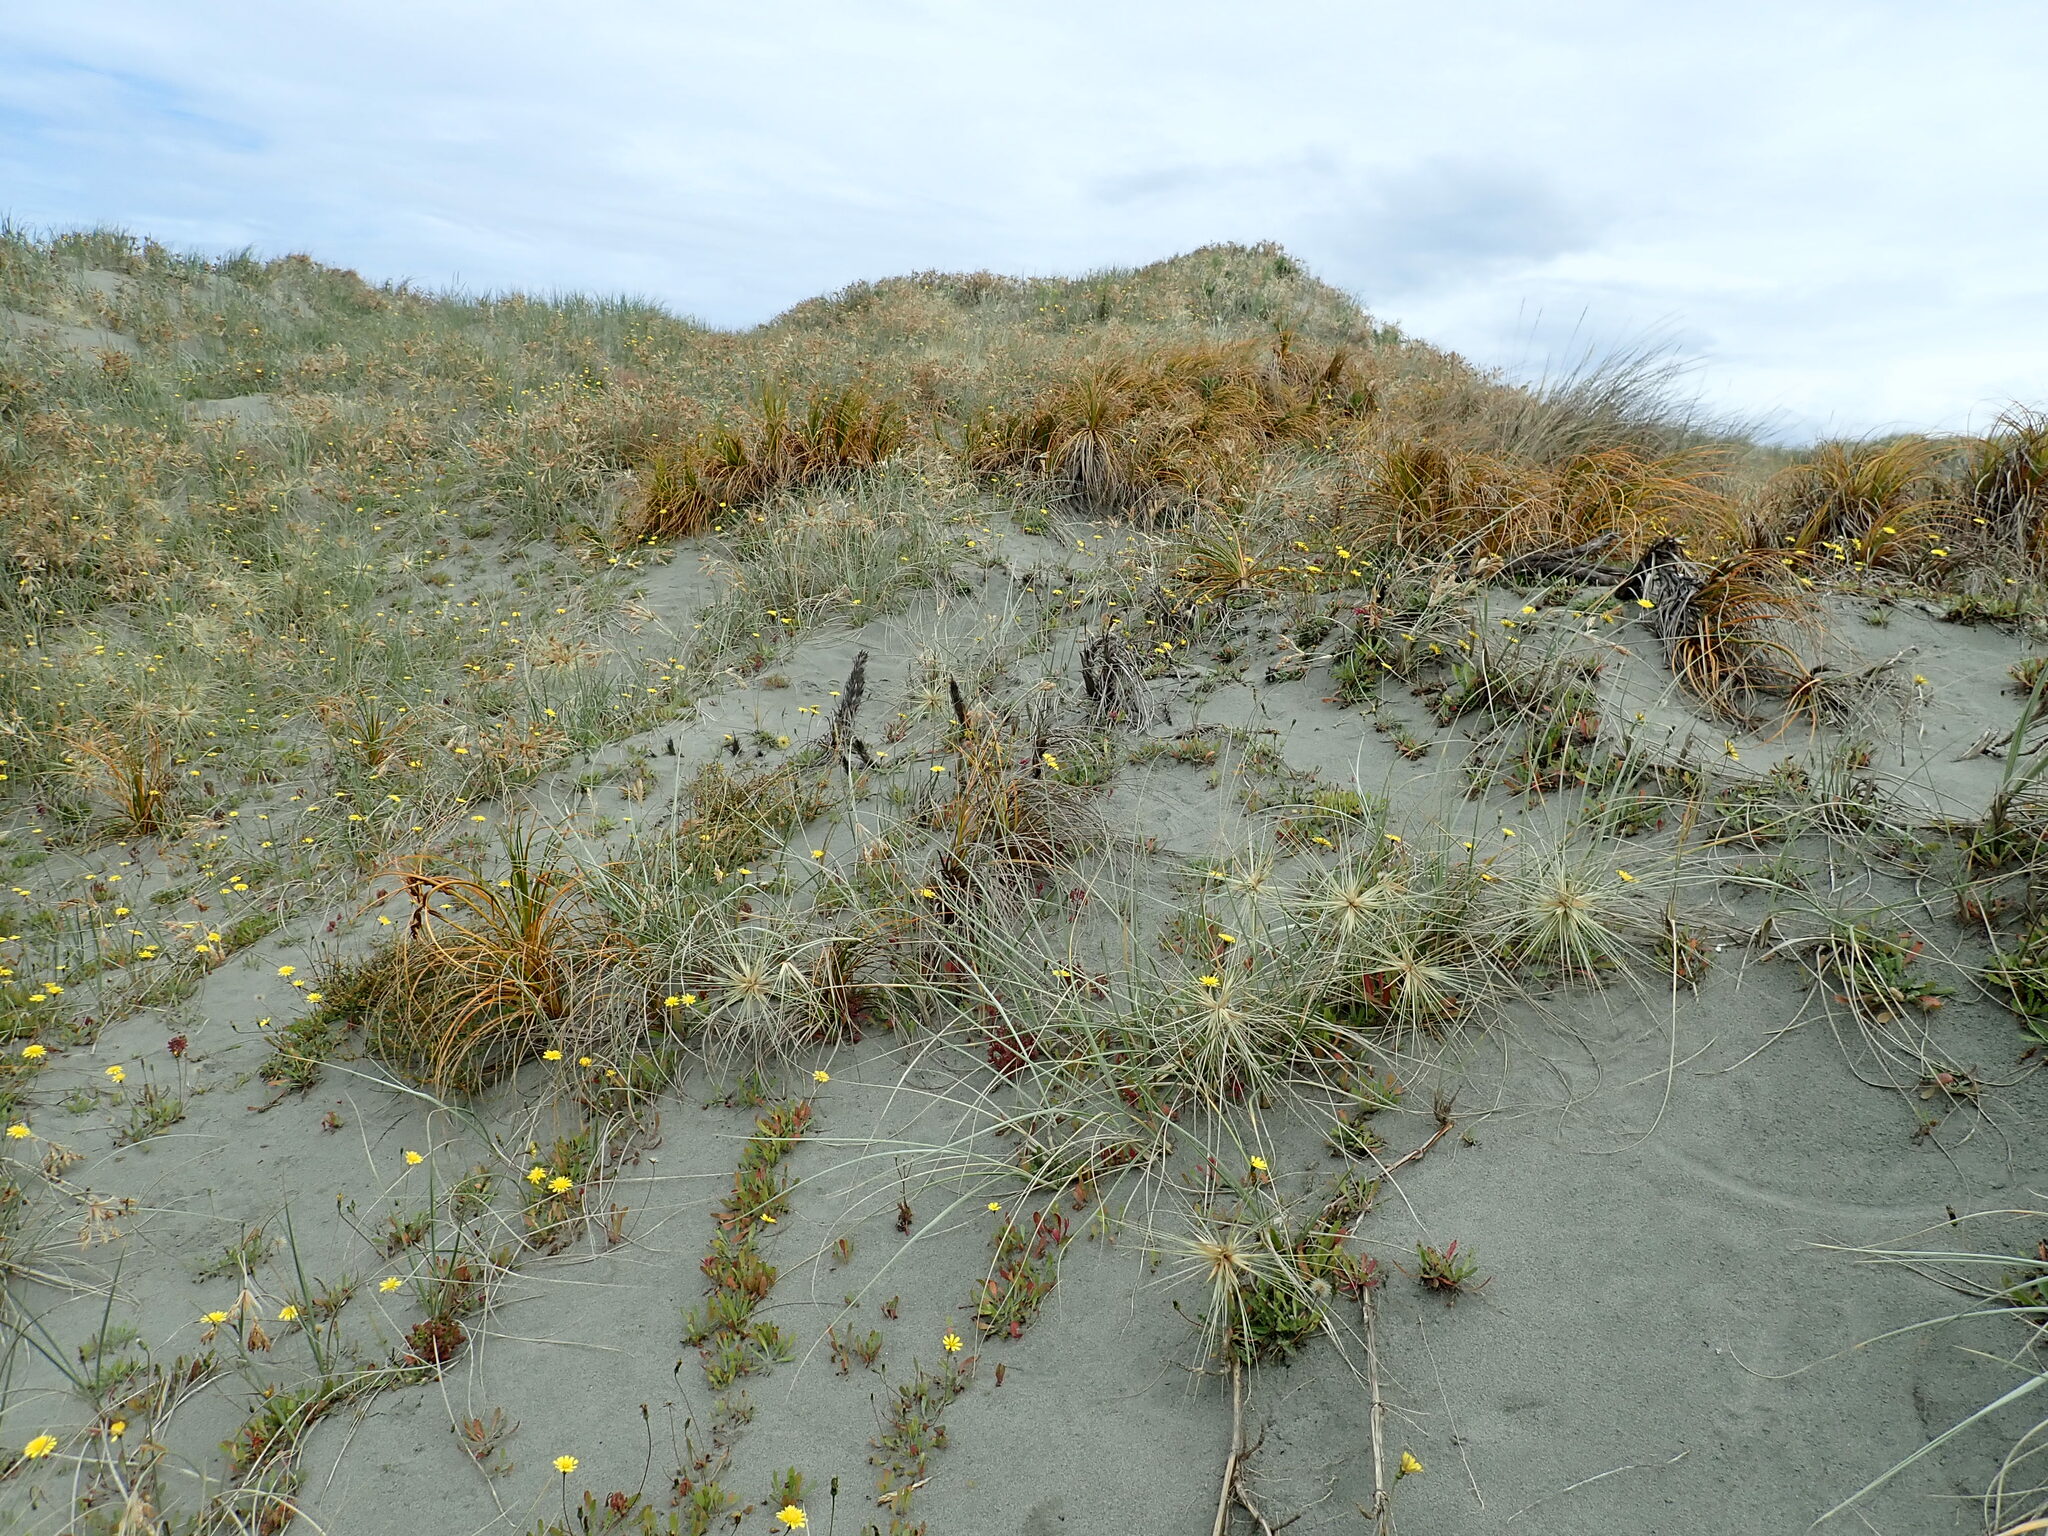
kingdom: Plantae
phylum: Tracheophyta
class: Liliopsida
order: Poales
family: Cyperaceae
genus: Ficinia
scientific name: Ficinia spiralis
